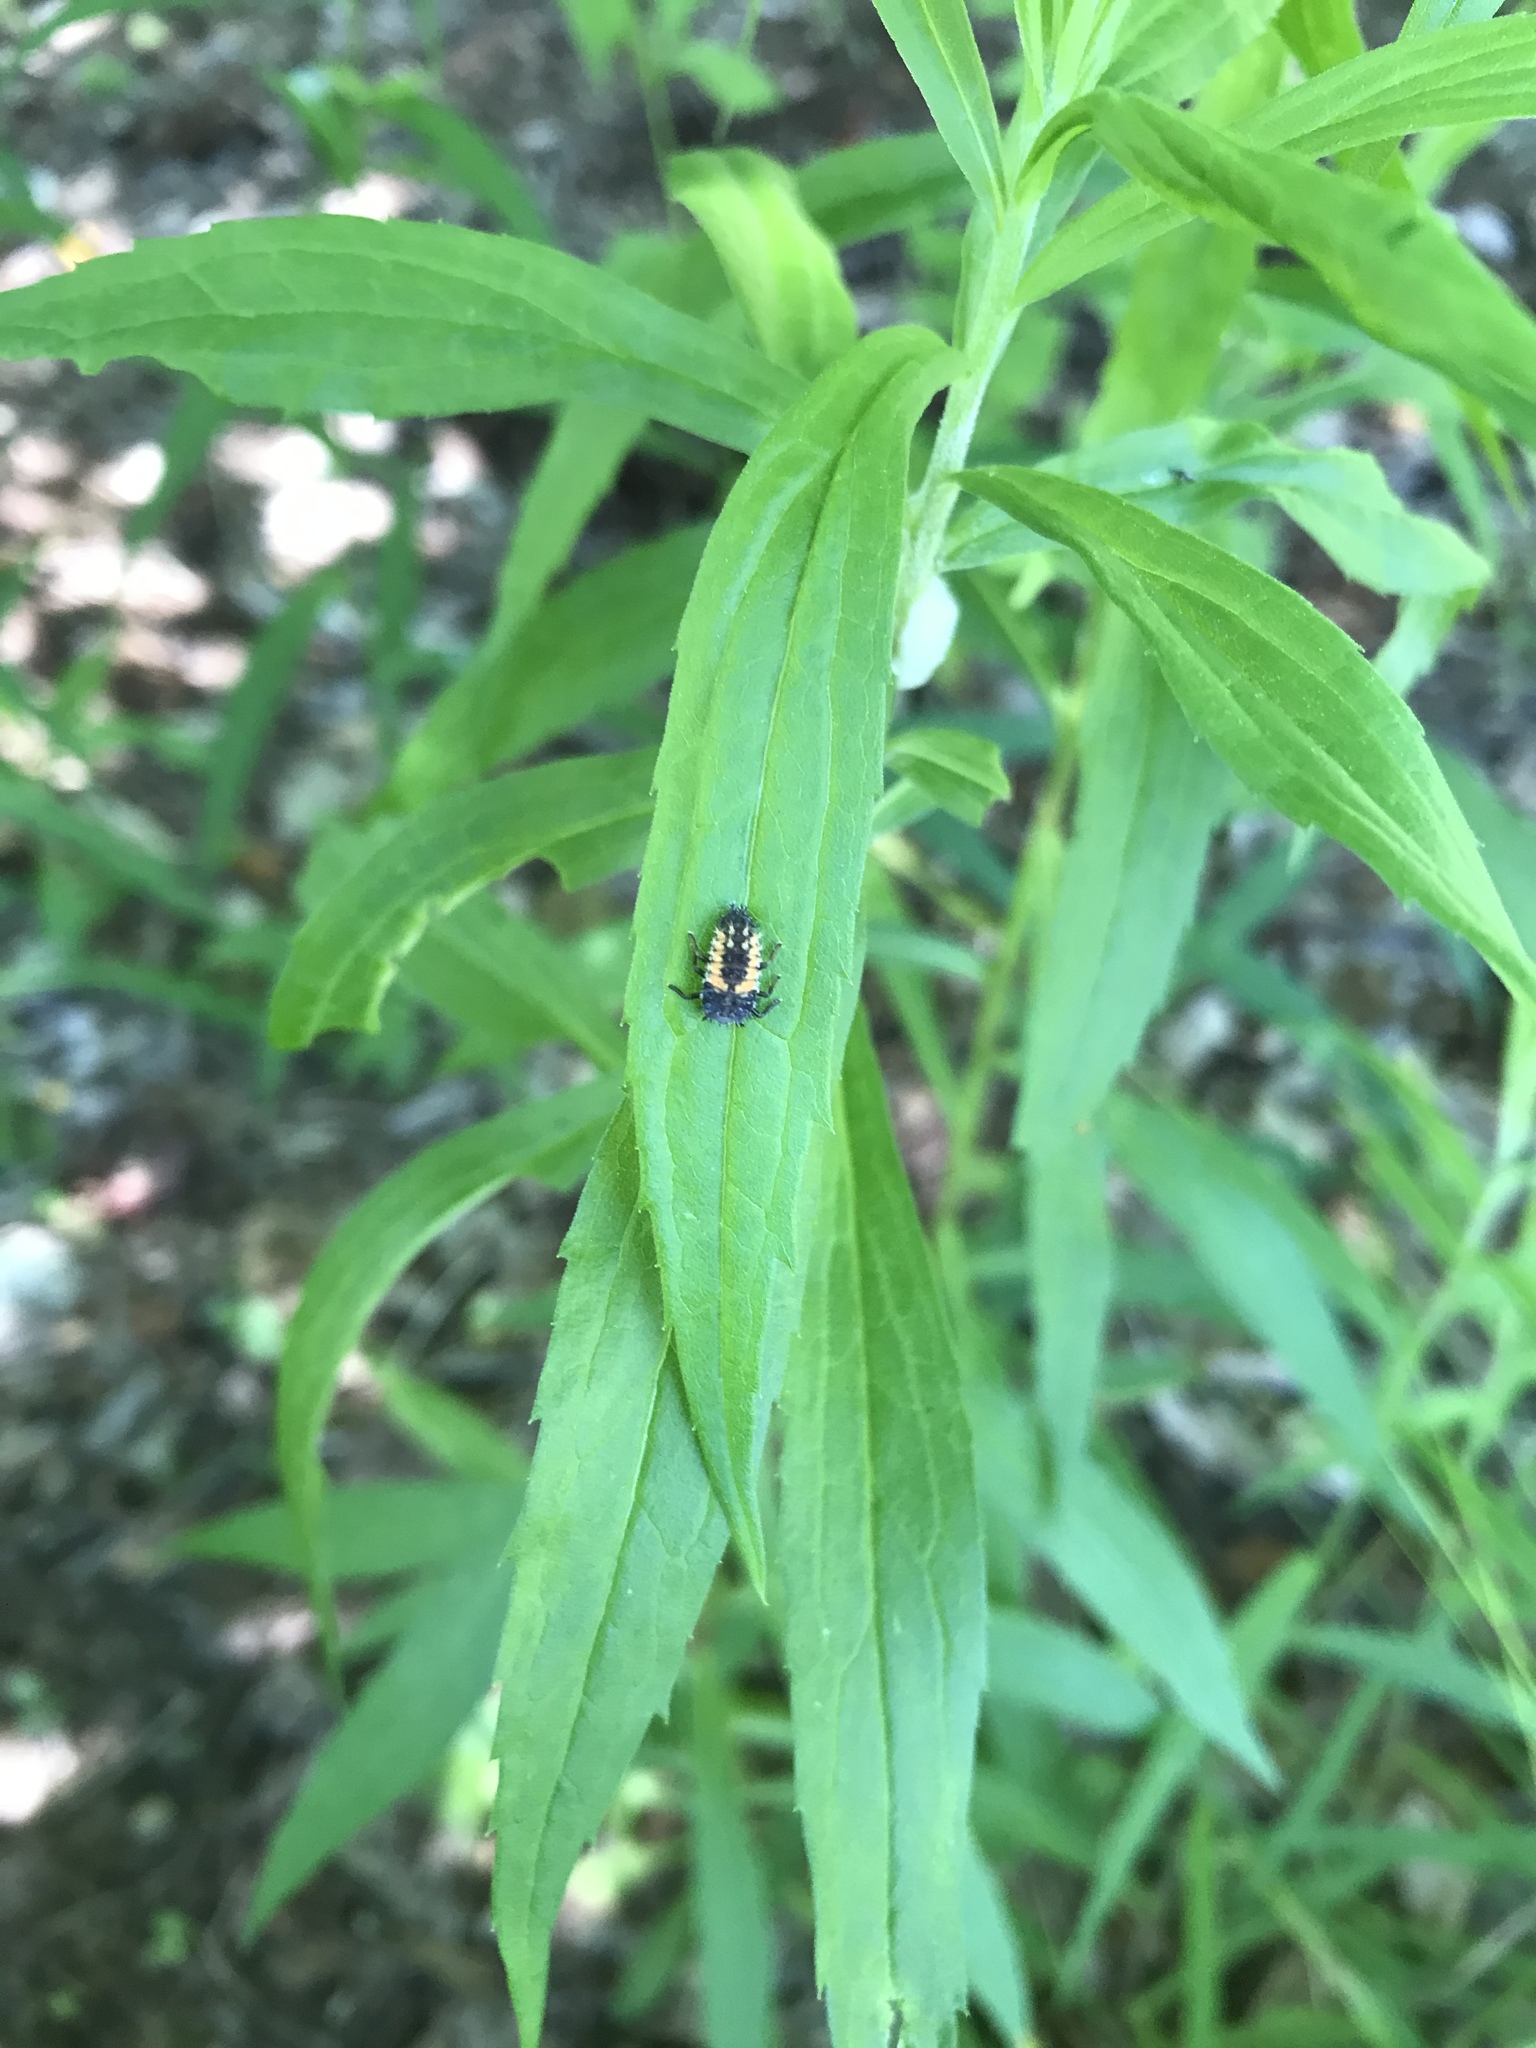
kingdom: Animalia
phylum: Arthropoda
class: Insecta
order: Coleoptera
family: Coccinellidae
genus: Harmonia
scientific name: Harmonia axyridis
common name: Harlequin ladybird
